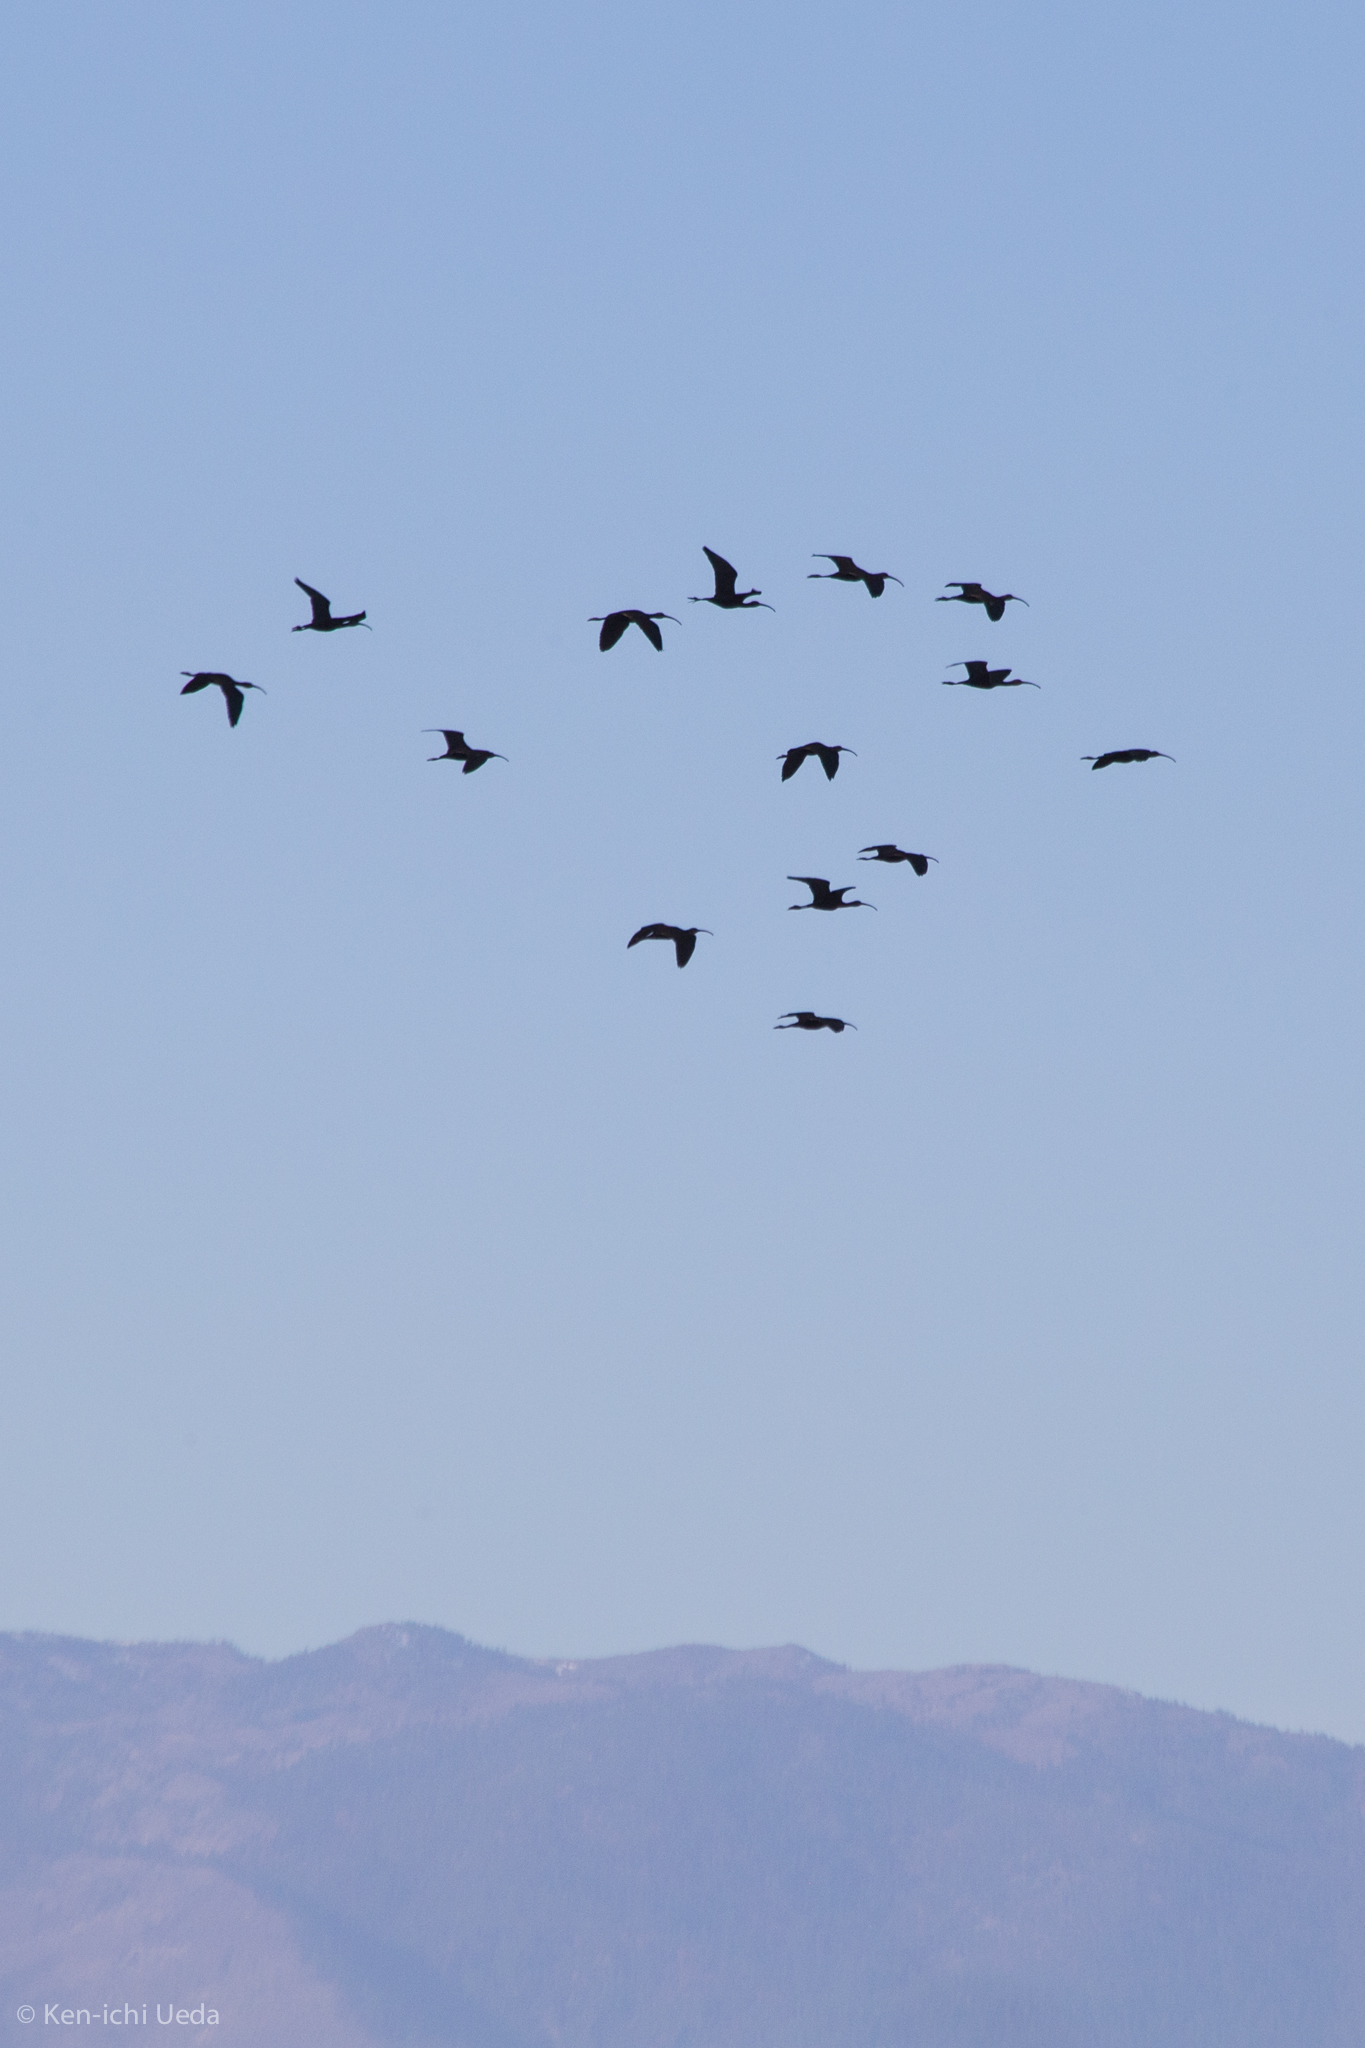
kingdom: Animalia
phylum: Chordata
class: Aves
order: Pelecaniformes
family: Threskiornithidae
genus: Plegadis
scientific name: Plegadis chihi
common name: White-faced ibis
